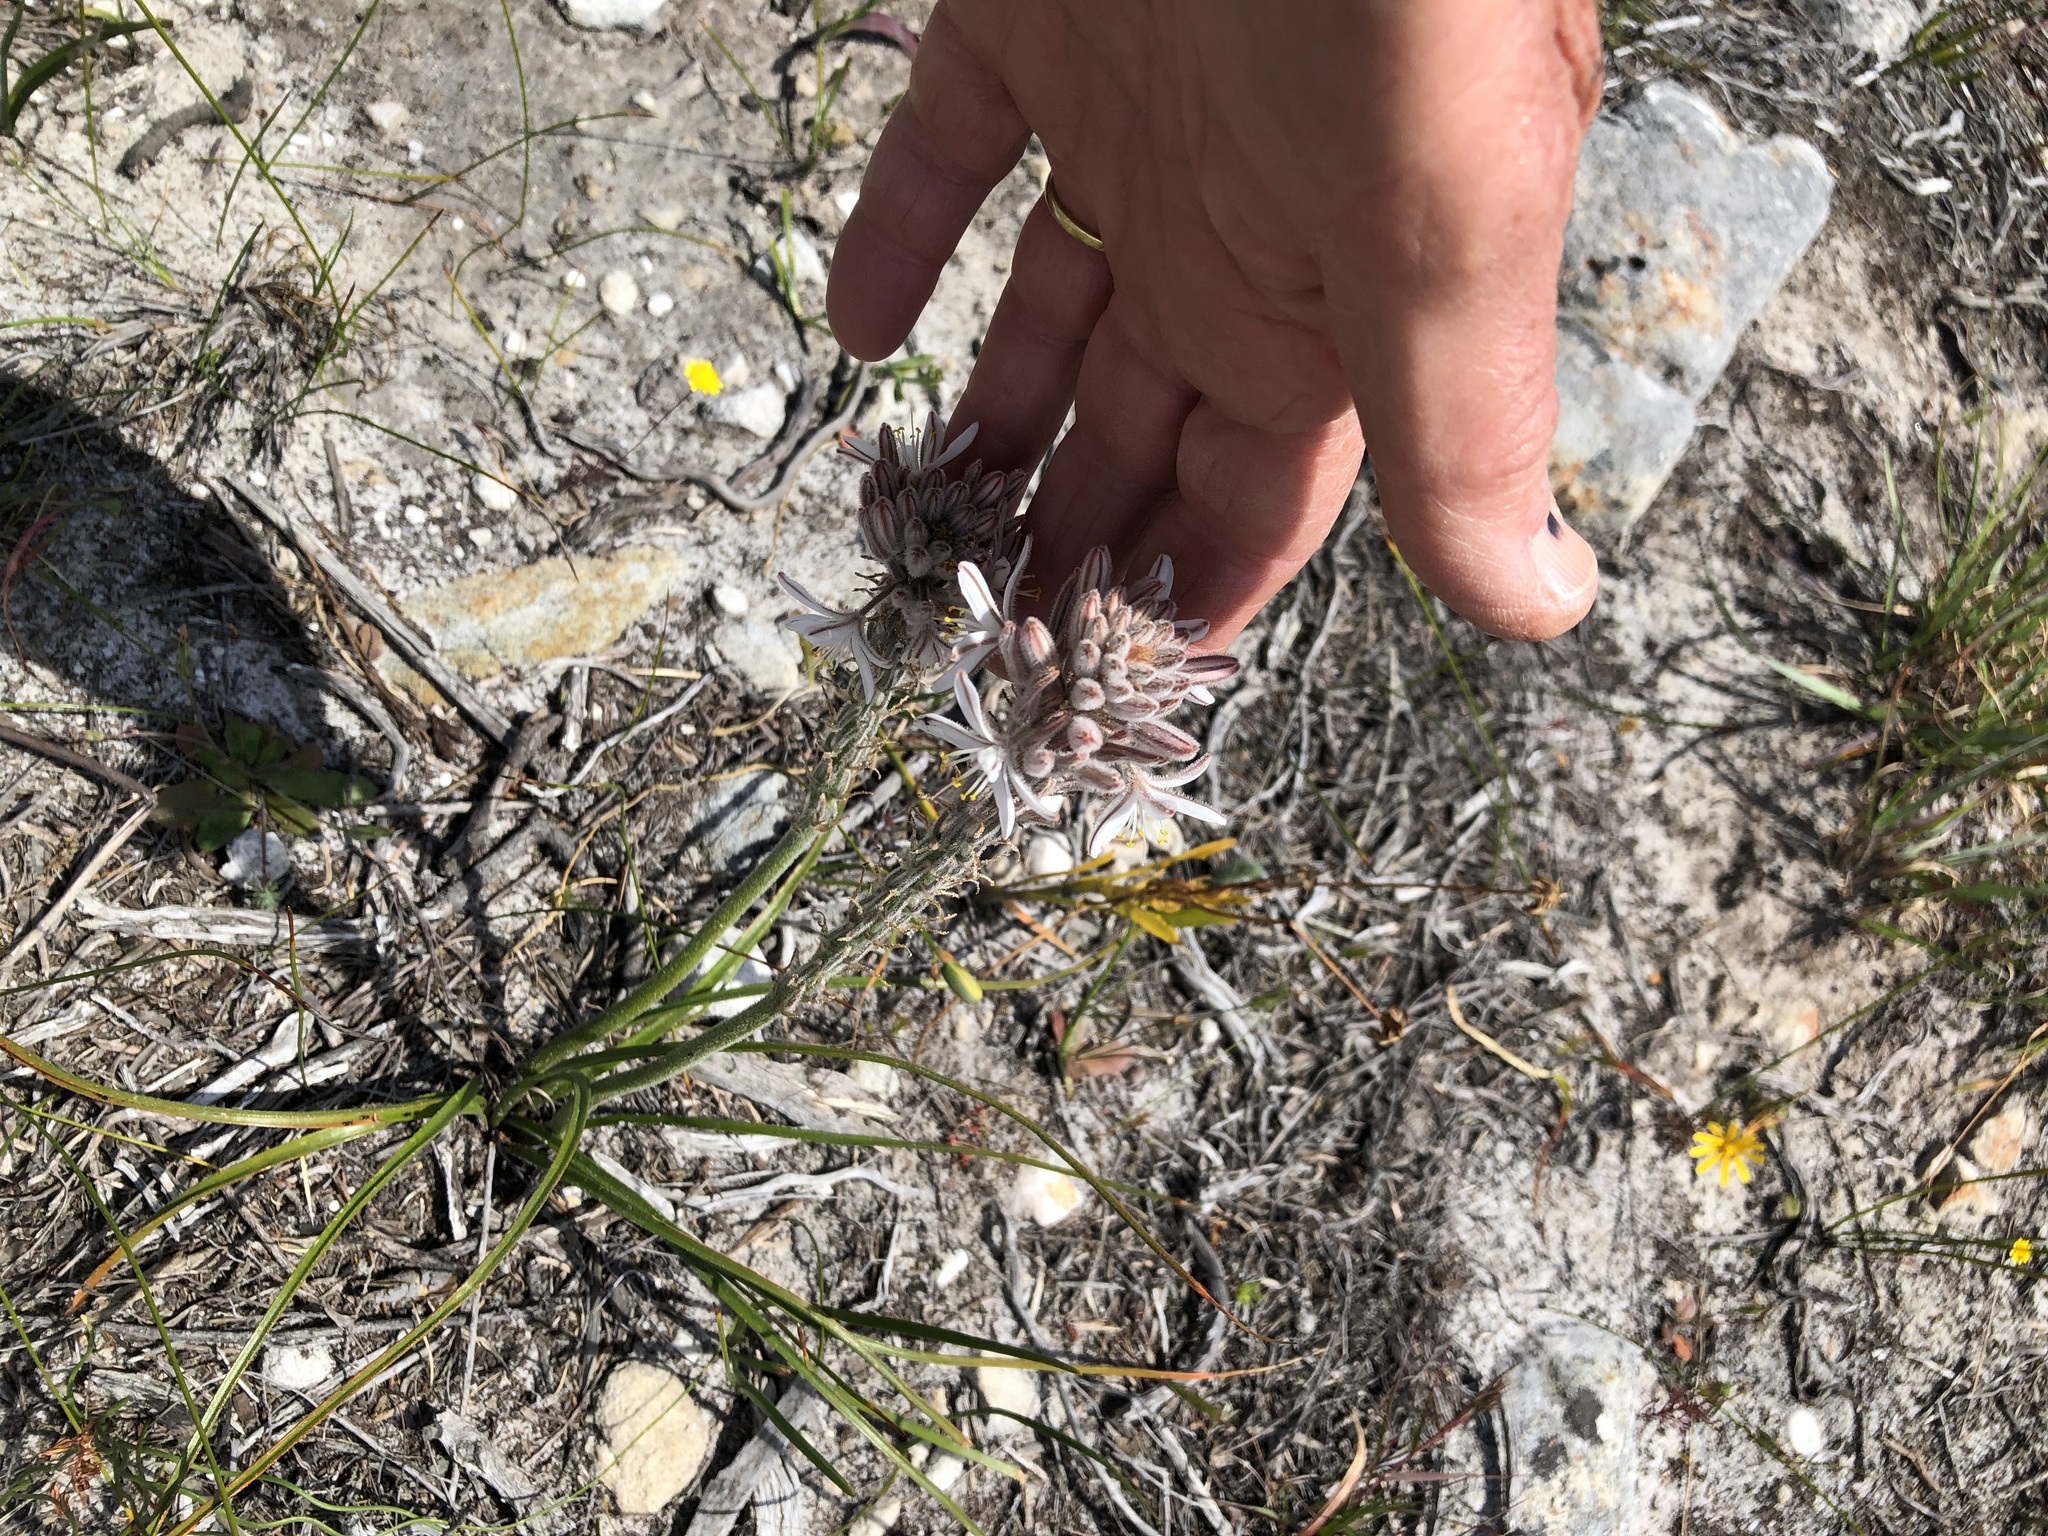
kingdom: Plantae
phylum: Tracheophyta
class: Liliopsida
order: Asparagales
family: Asphodelaceae
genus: Trachyandra
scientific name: Trachyandra hirsutiflora
